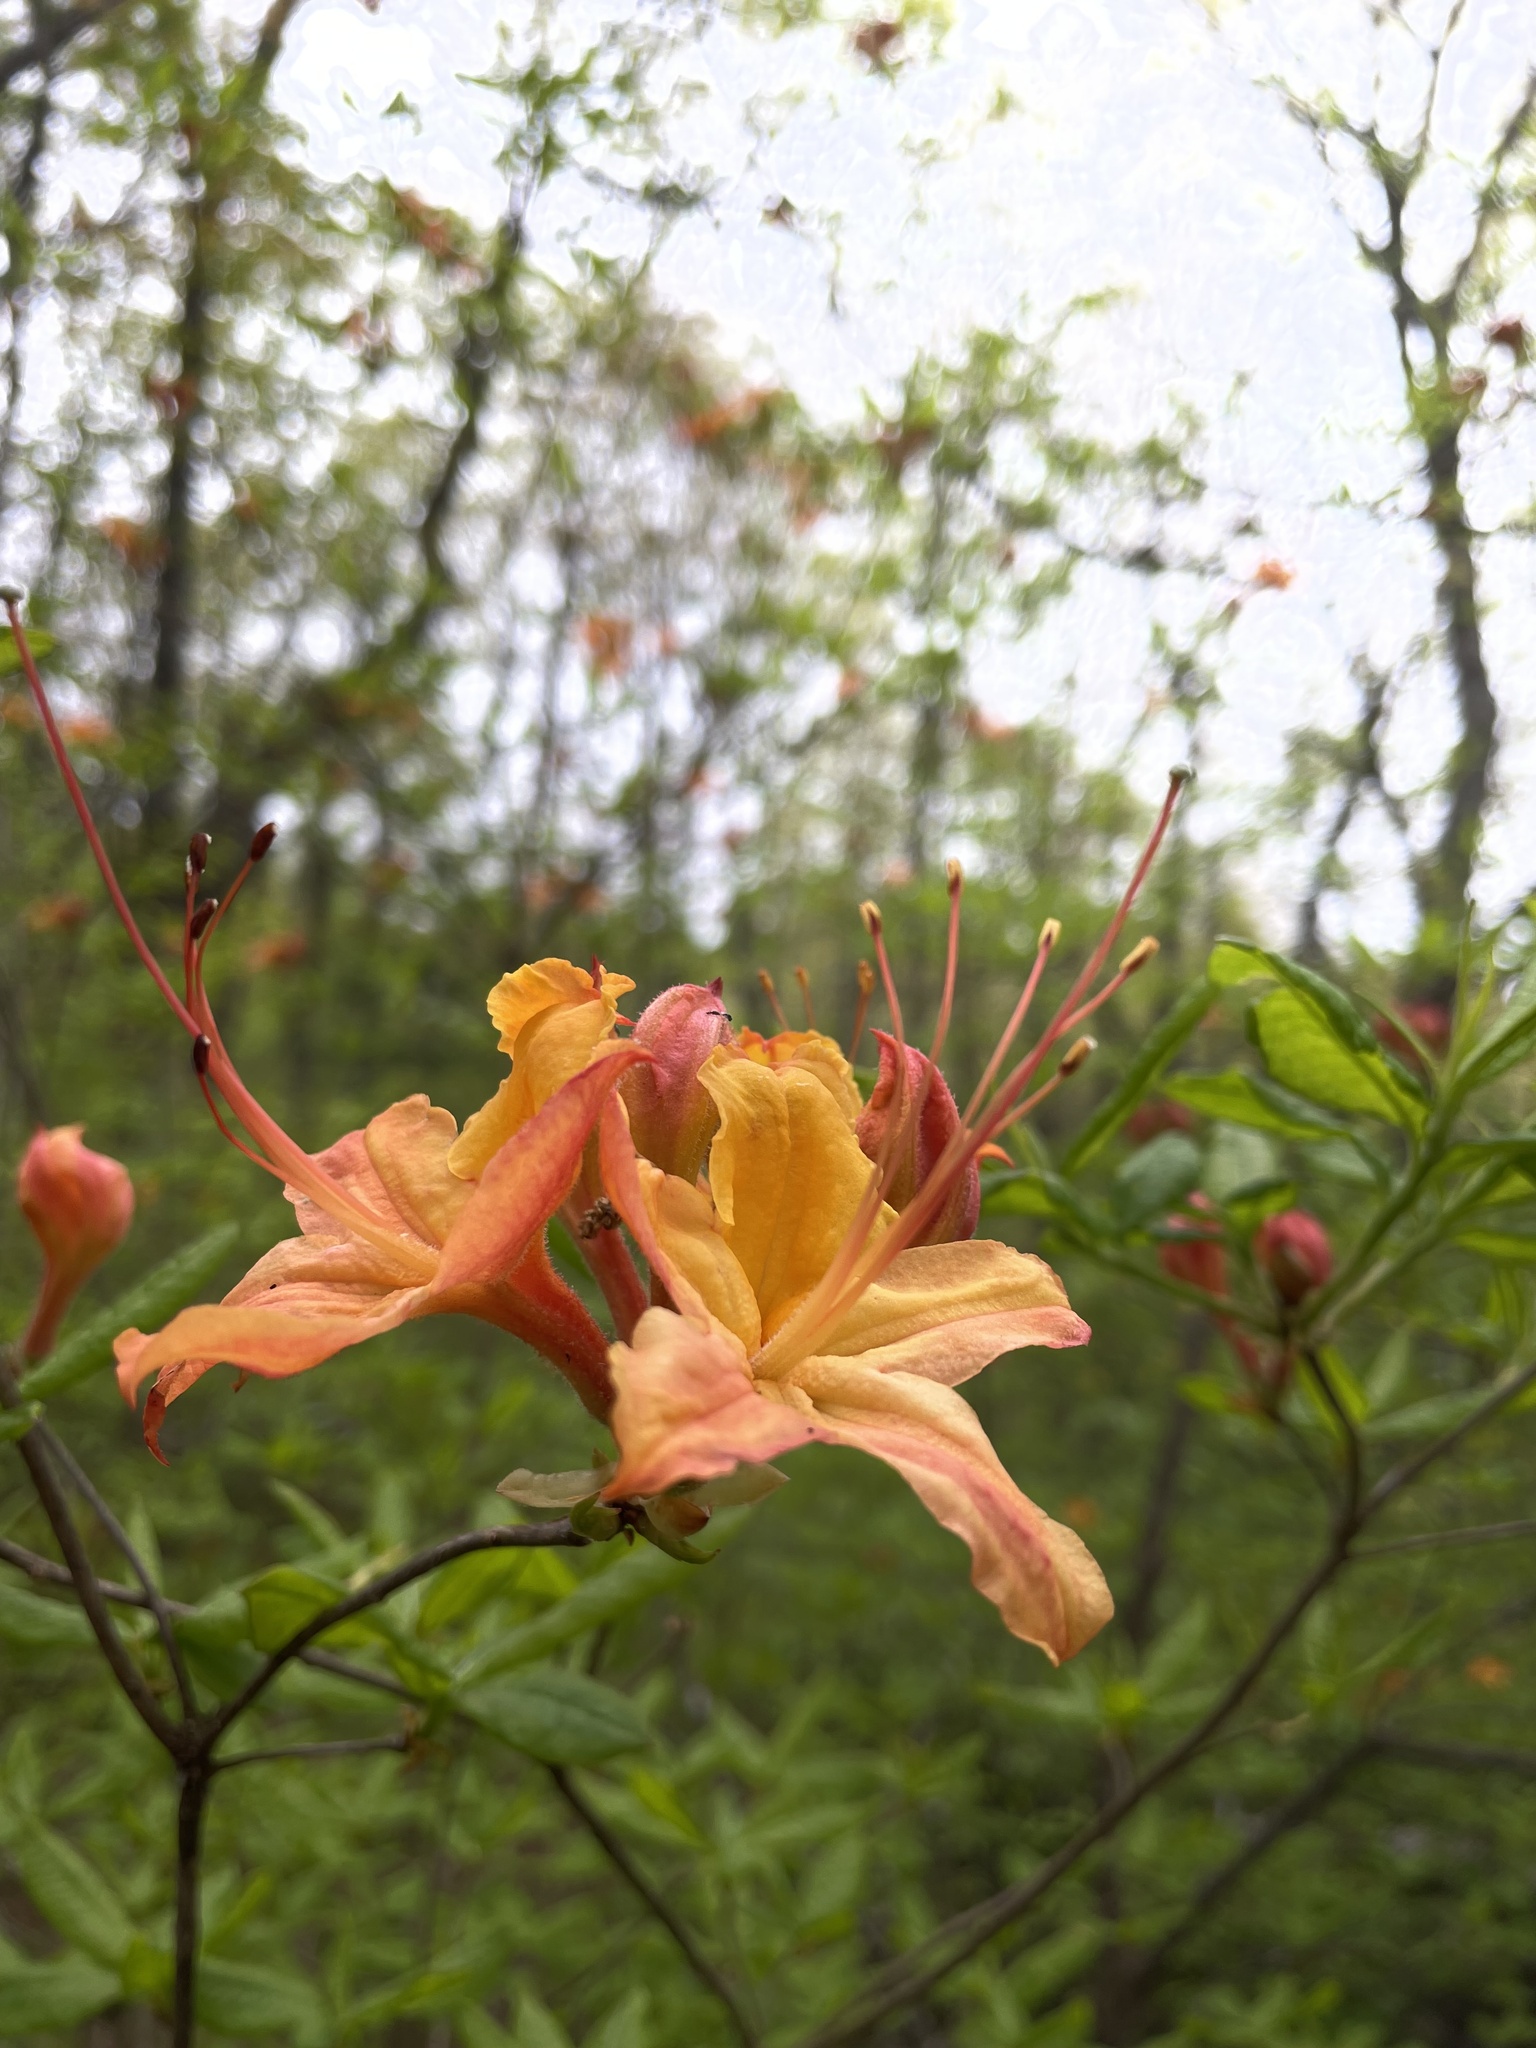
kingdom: Plantae
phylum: Tracheophyta
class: Magnoliopsida
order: Ericales
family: Ericaceae
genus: Rhododendron
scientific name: Rhododendron calendulaceum
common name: Flame azalea
